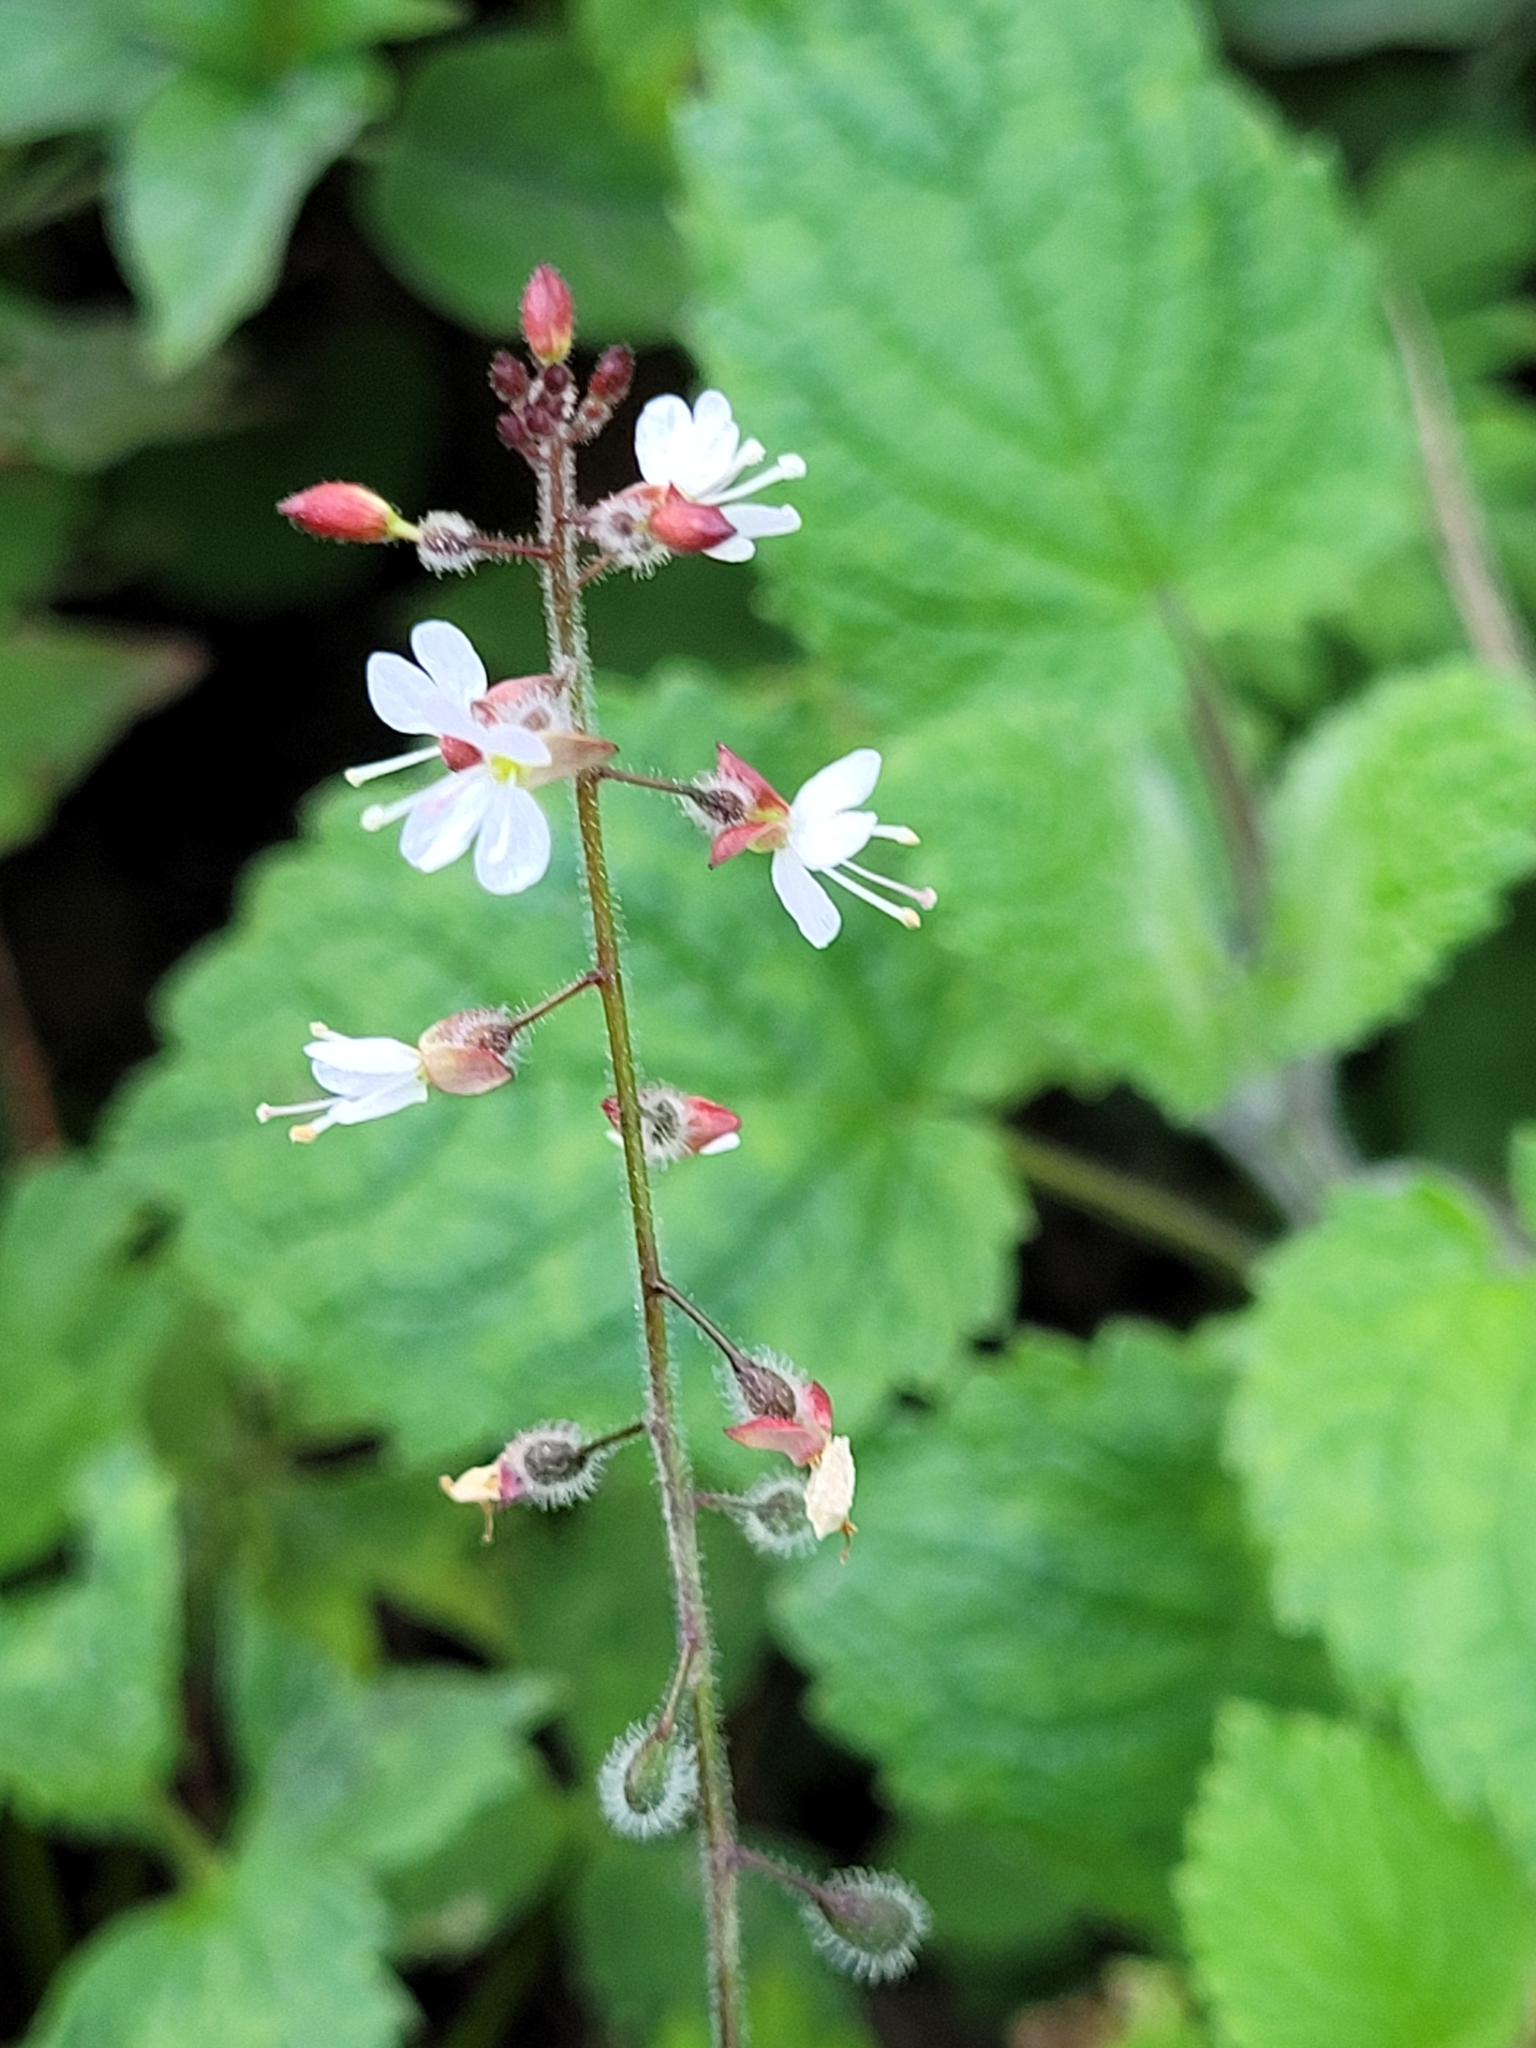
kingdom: Plantae
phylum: Tracheophyta
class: Magnoliopsida
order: Myrtales
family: Onagraceae
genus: Circaea
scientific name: Circaea lutetiana
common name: Enchanter's-nightshade
